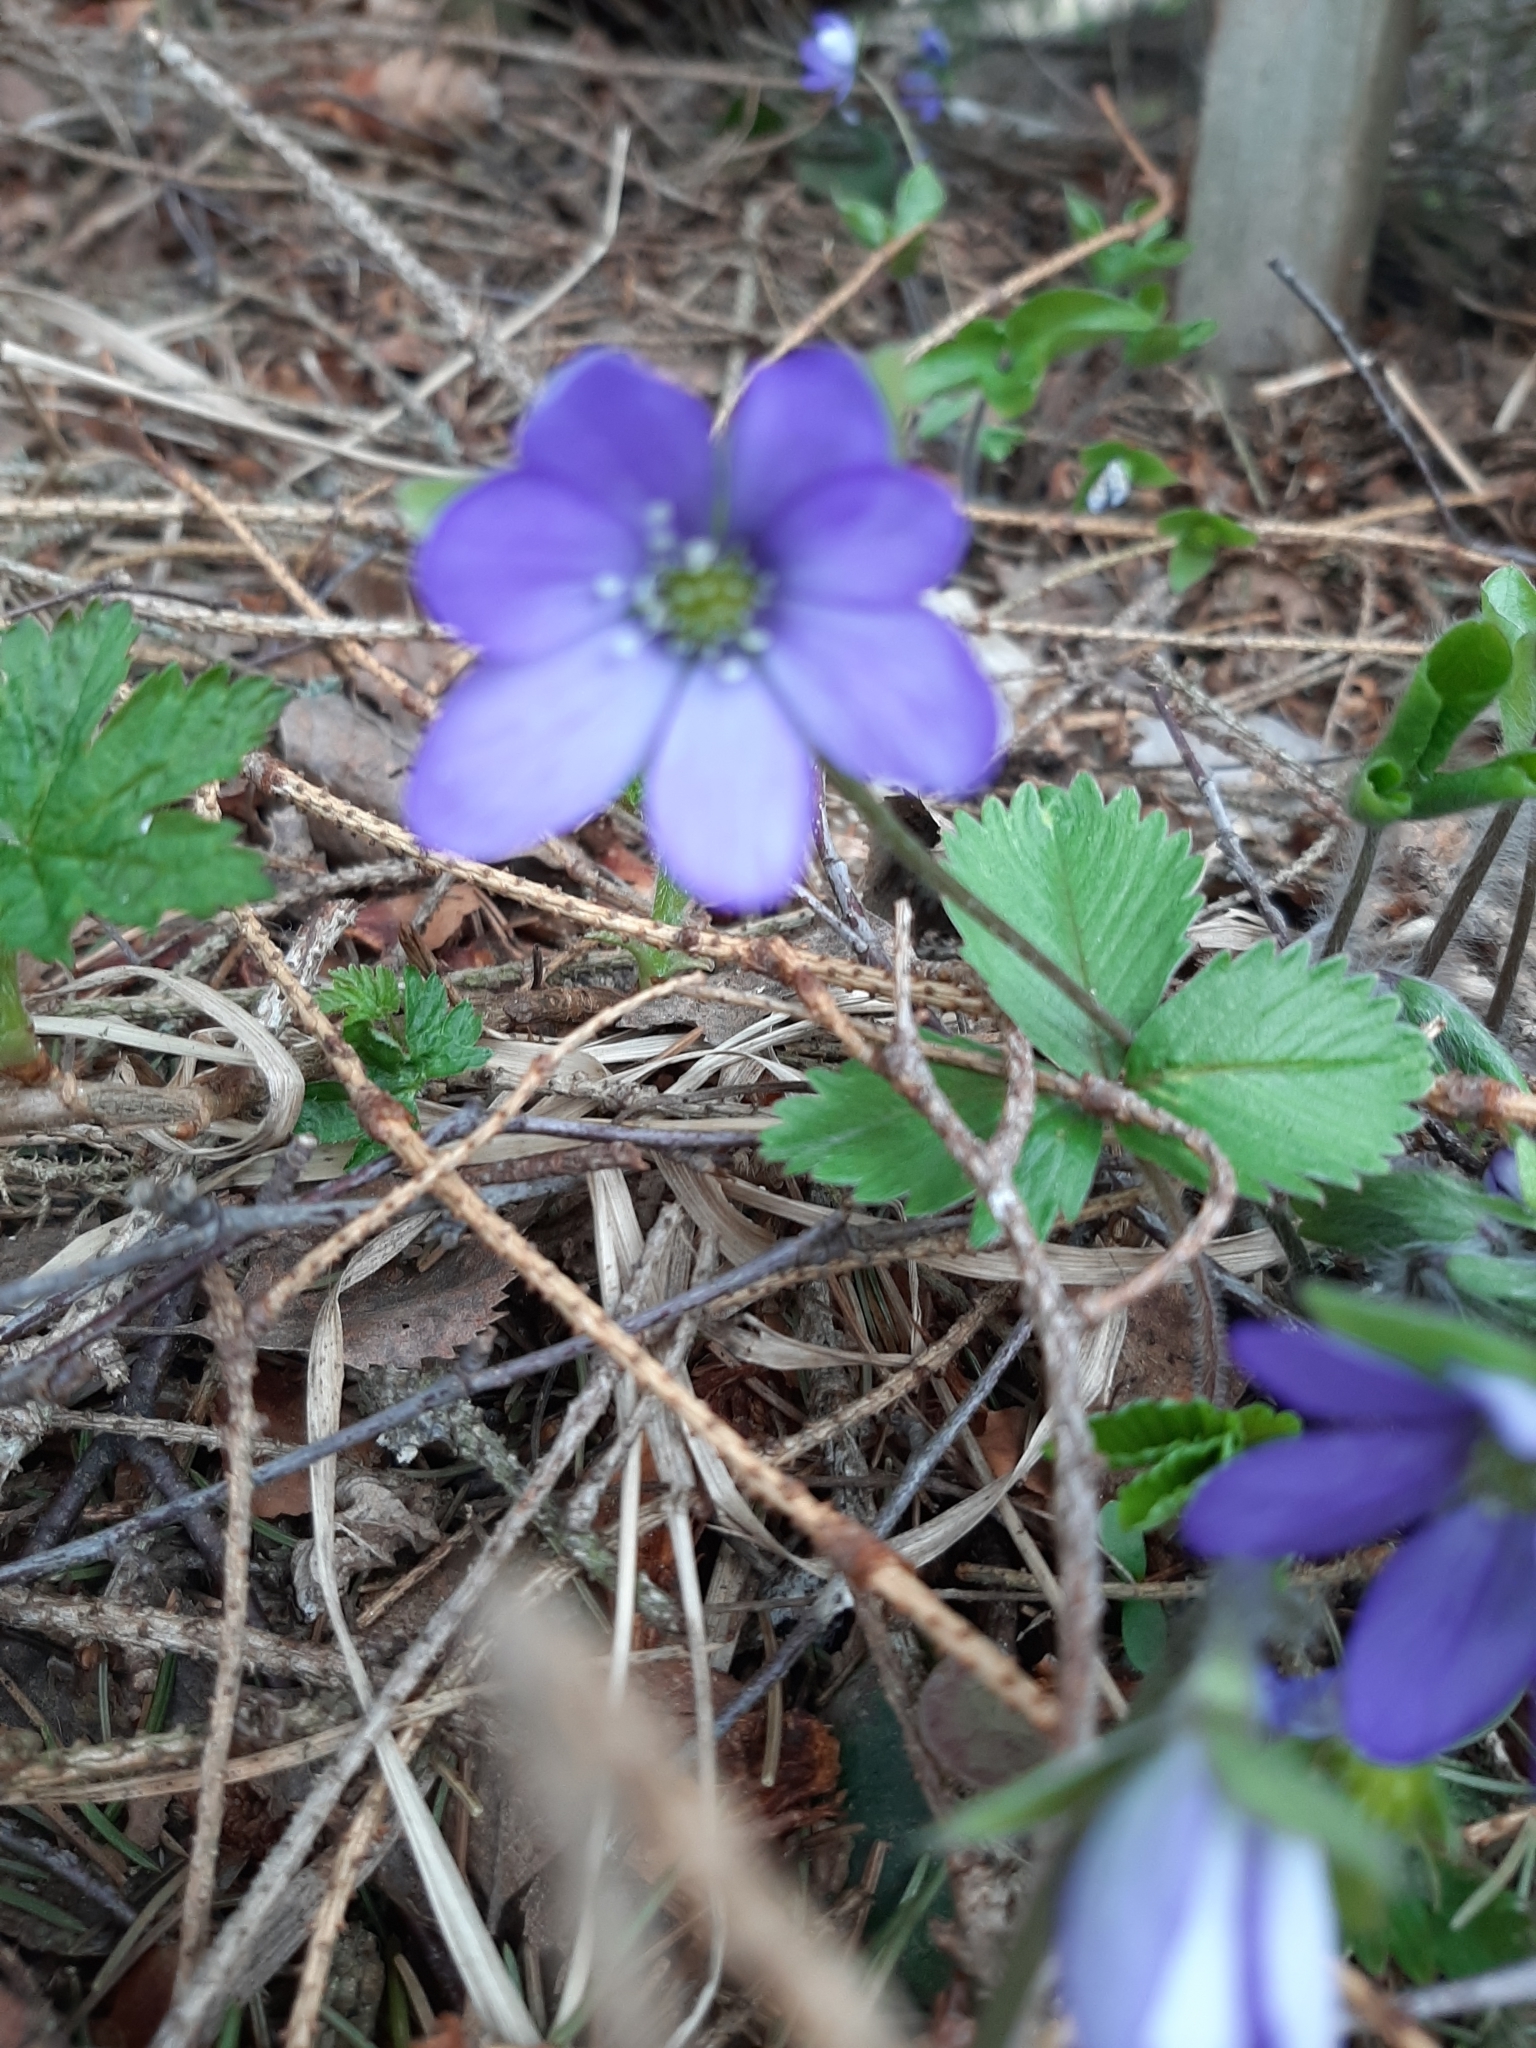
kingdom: Plantae
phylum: Tracheophyta
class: Magnoliopsida
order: Ranunculales
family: Ranunculaceae
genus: Hepatica
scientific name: Hepatica nobilis
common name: Liverleaf
